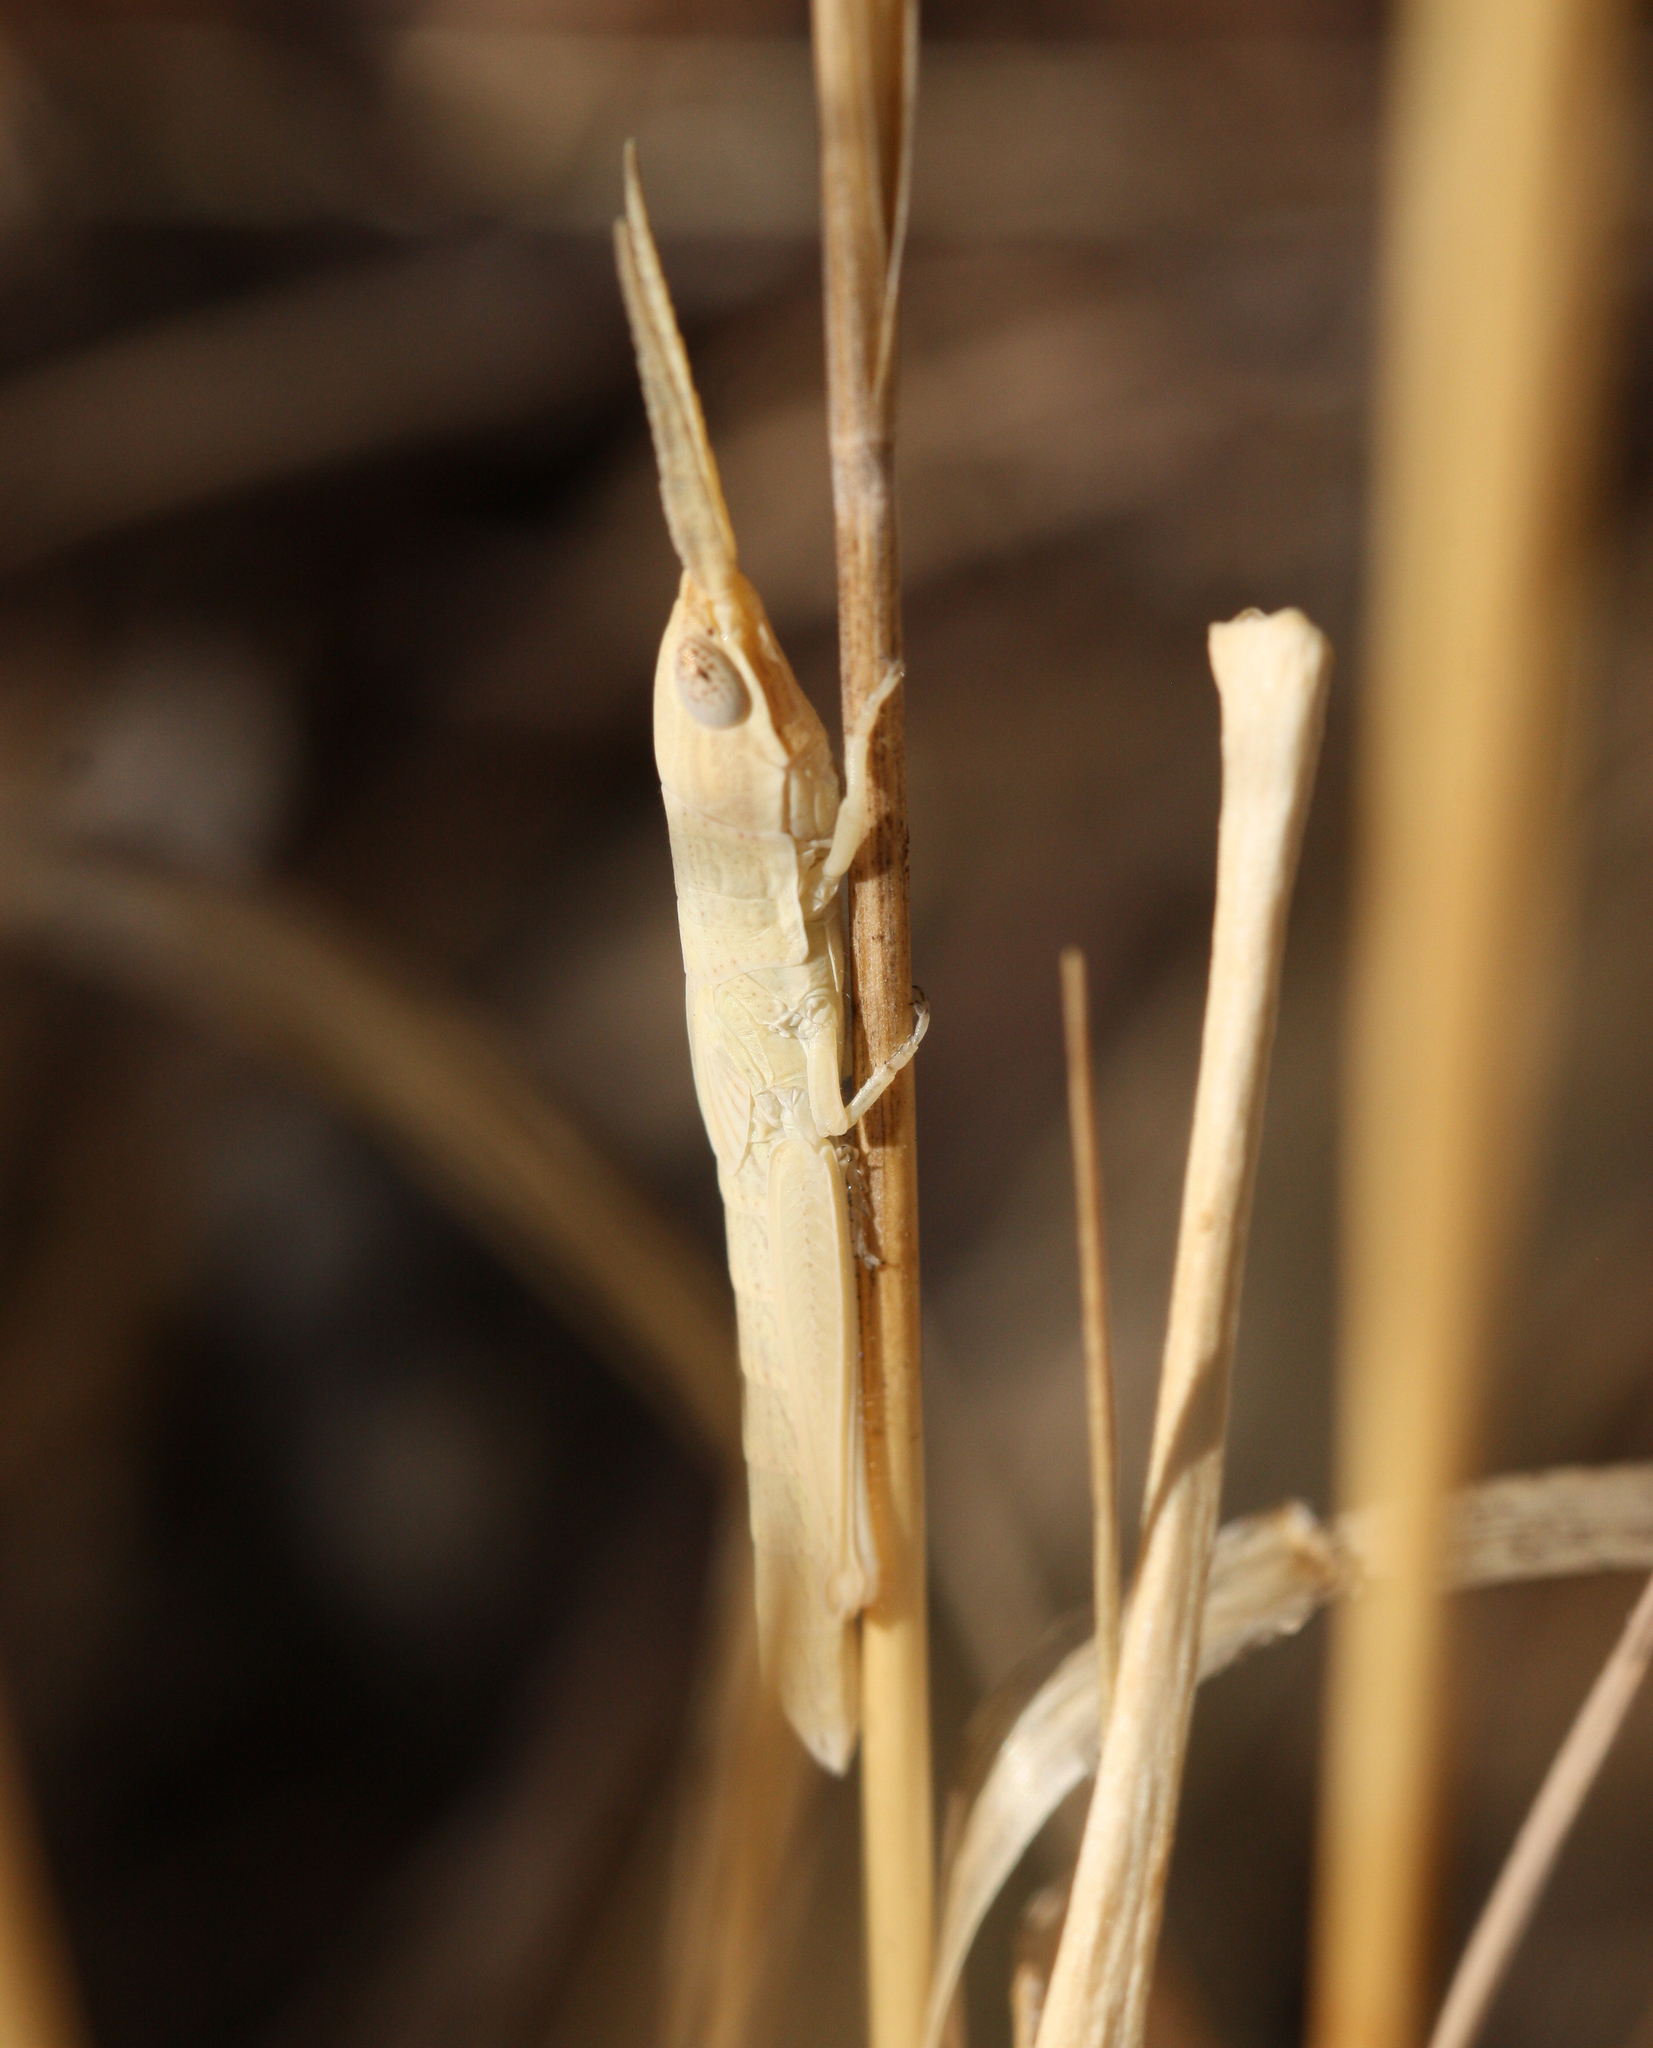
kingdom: Animalia
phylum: Arthropoda
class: Insecta
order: Orthoptera
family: Acrididae
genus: Paropomala
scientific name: Paropomala wyomingensis
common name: Wyoming toothpick grasshopper
